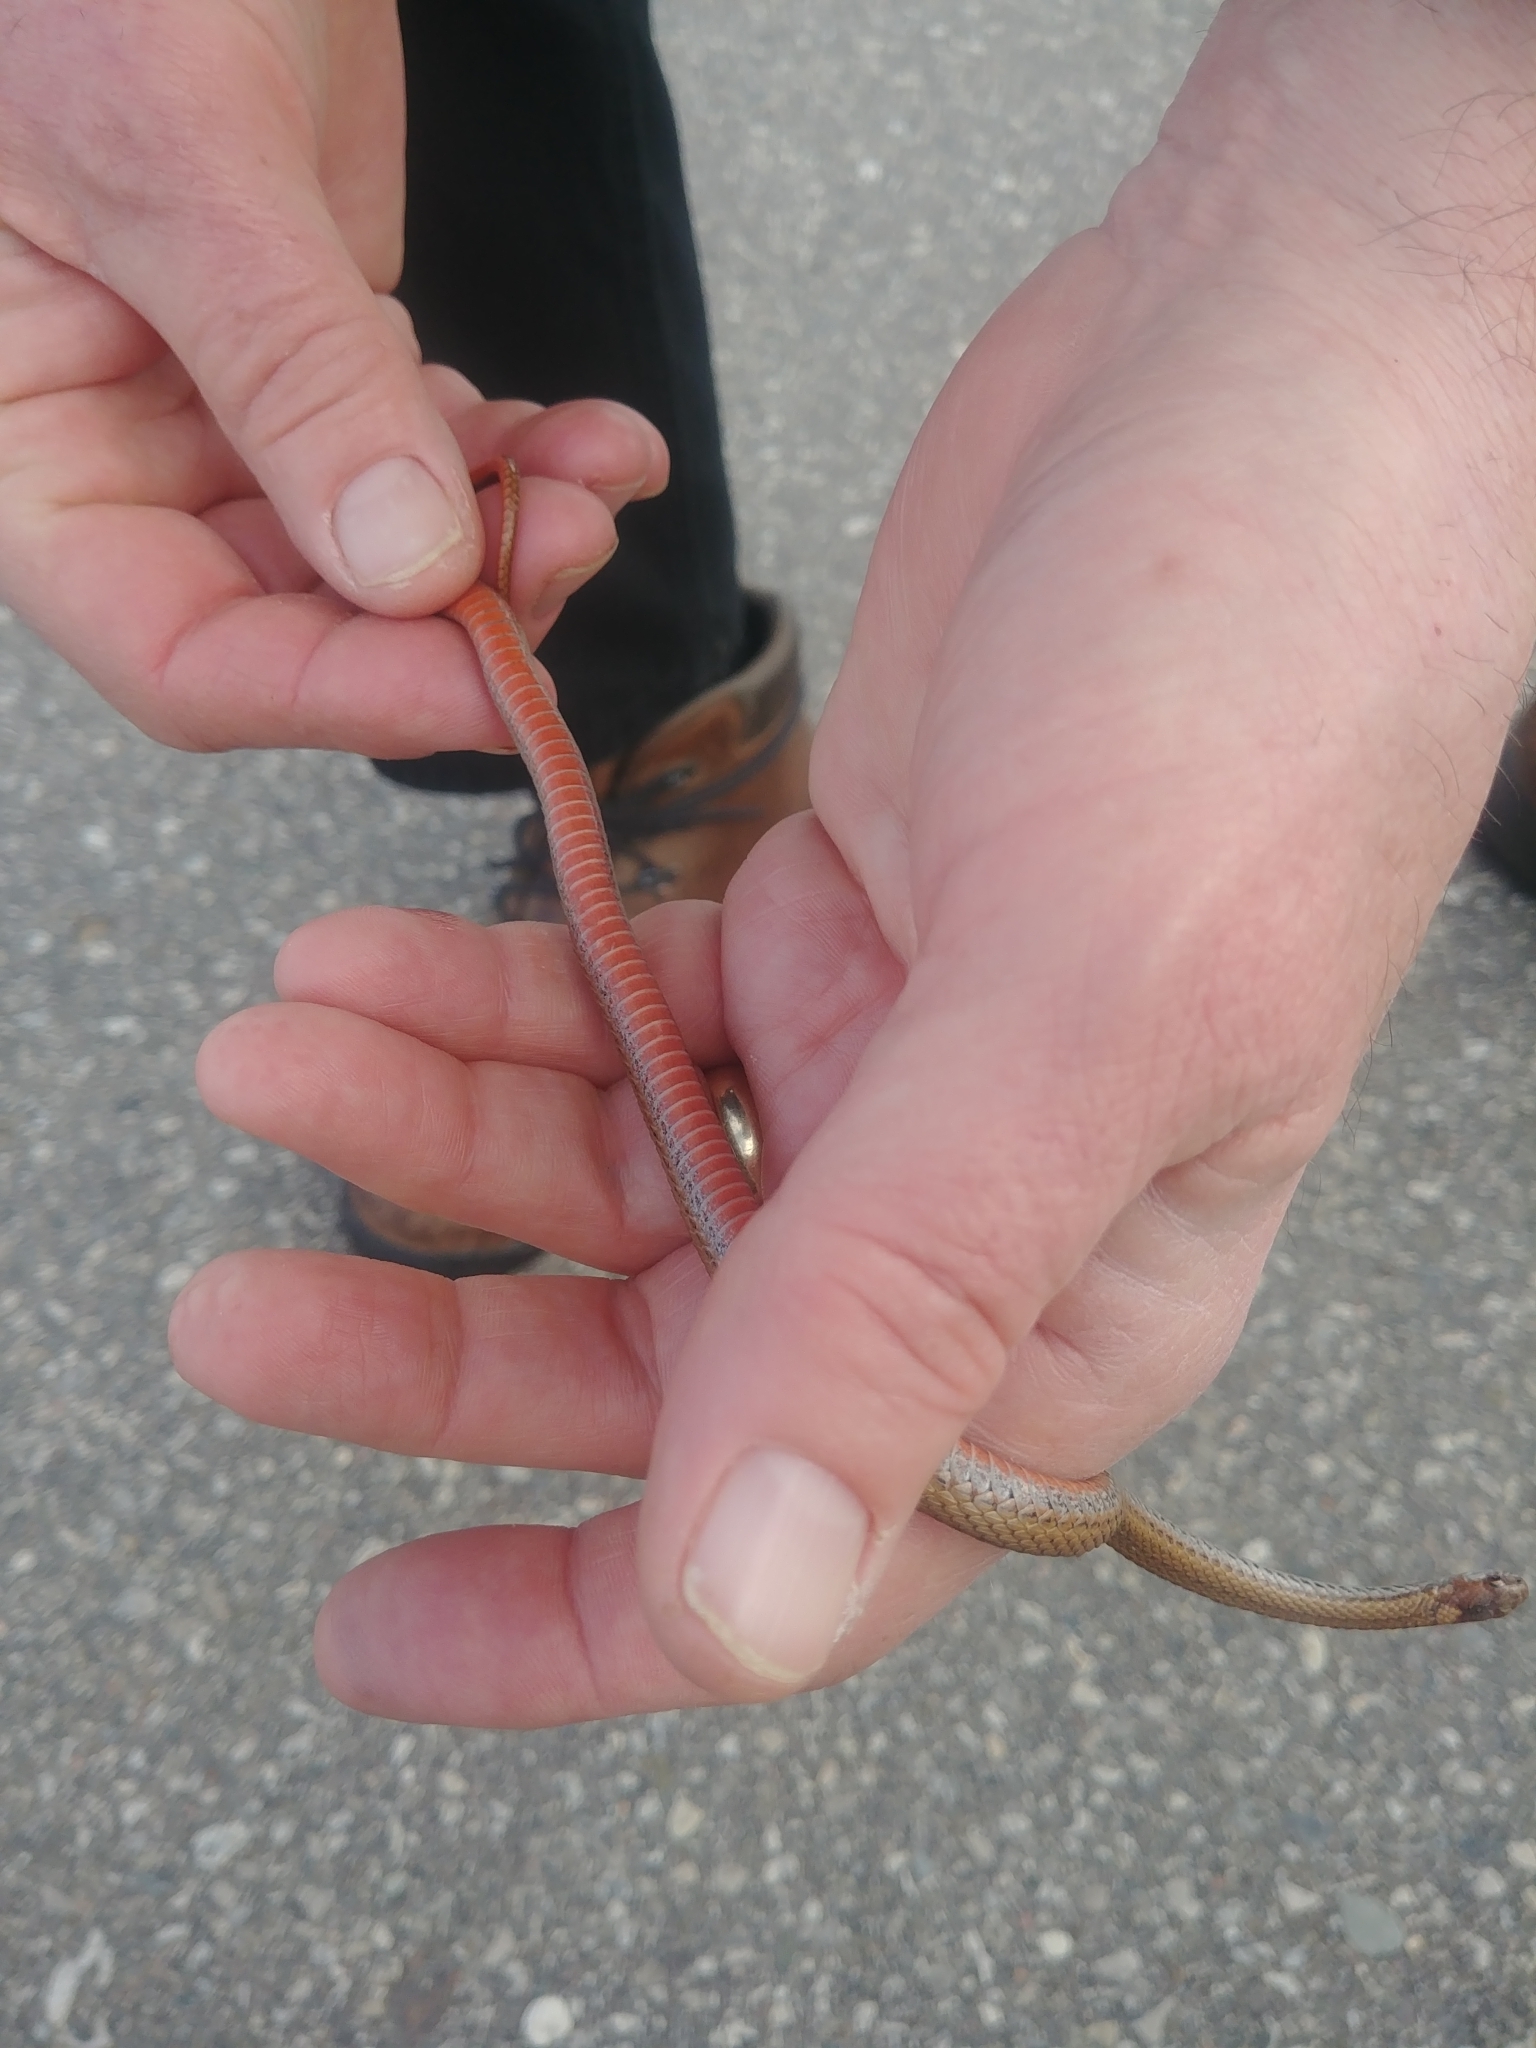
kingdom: Animalia
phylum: Chordata
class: Squamata
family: Colubridae
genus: Storeria
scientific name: Storeria occipitomaculata
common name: Redbelly snake
